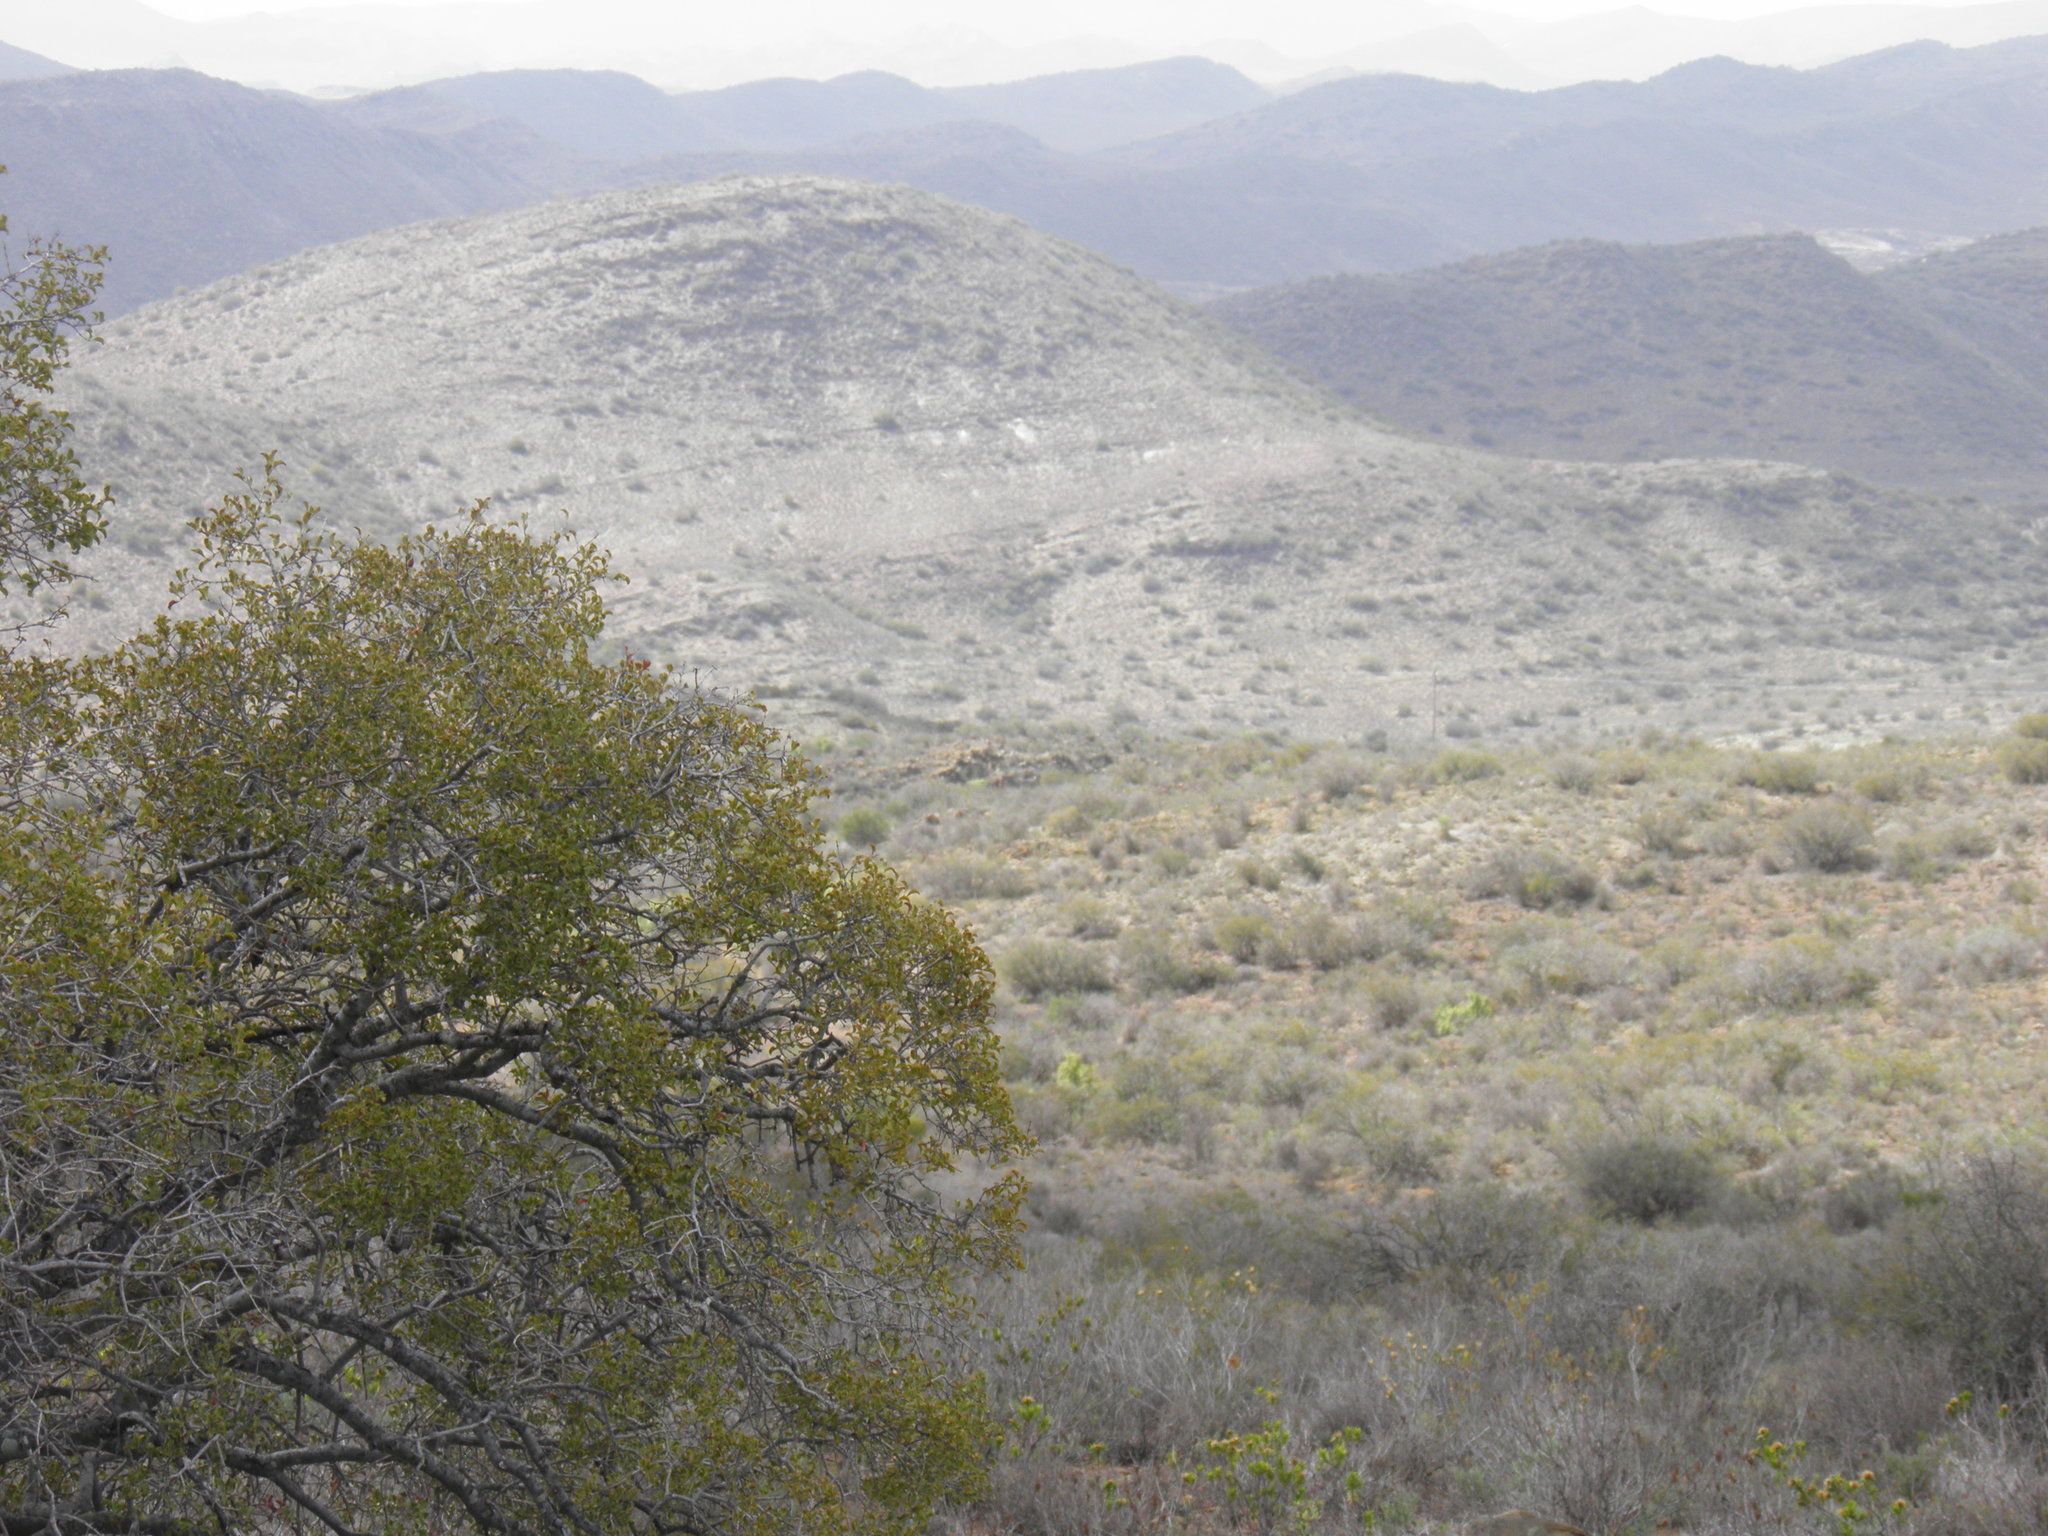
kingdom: Plantae
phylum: Tracheophyta
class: Magnoliopsida
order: Ericales
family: Ebenaceae
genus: Euclea
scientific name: Euclea undulata
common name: Small-leaved guarri
